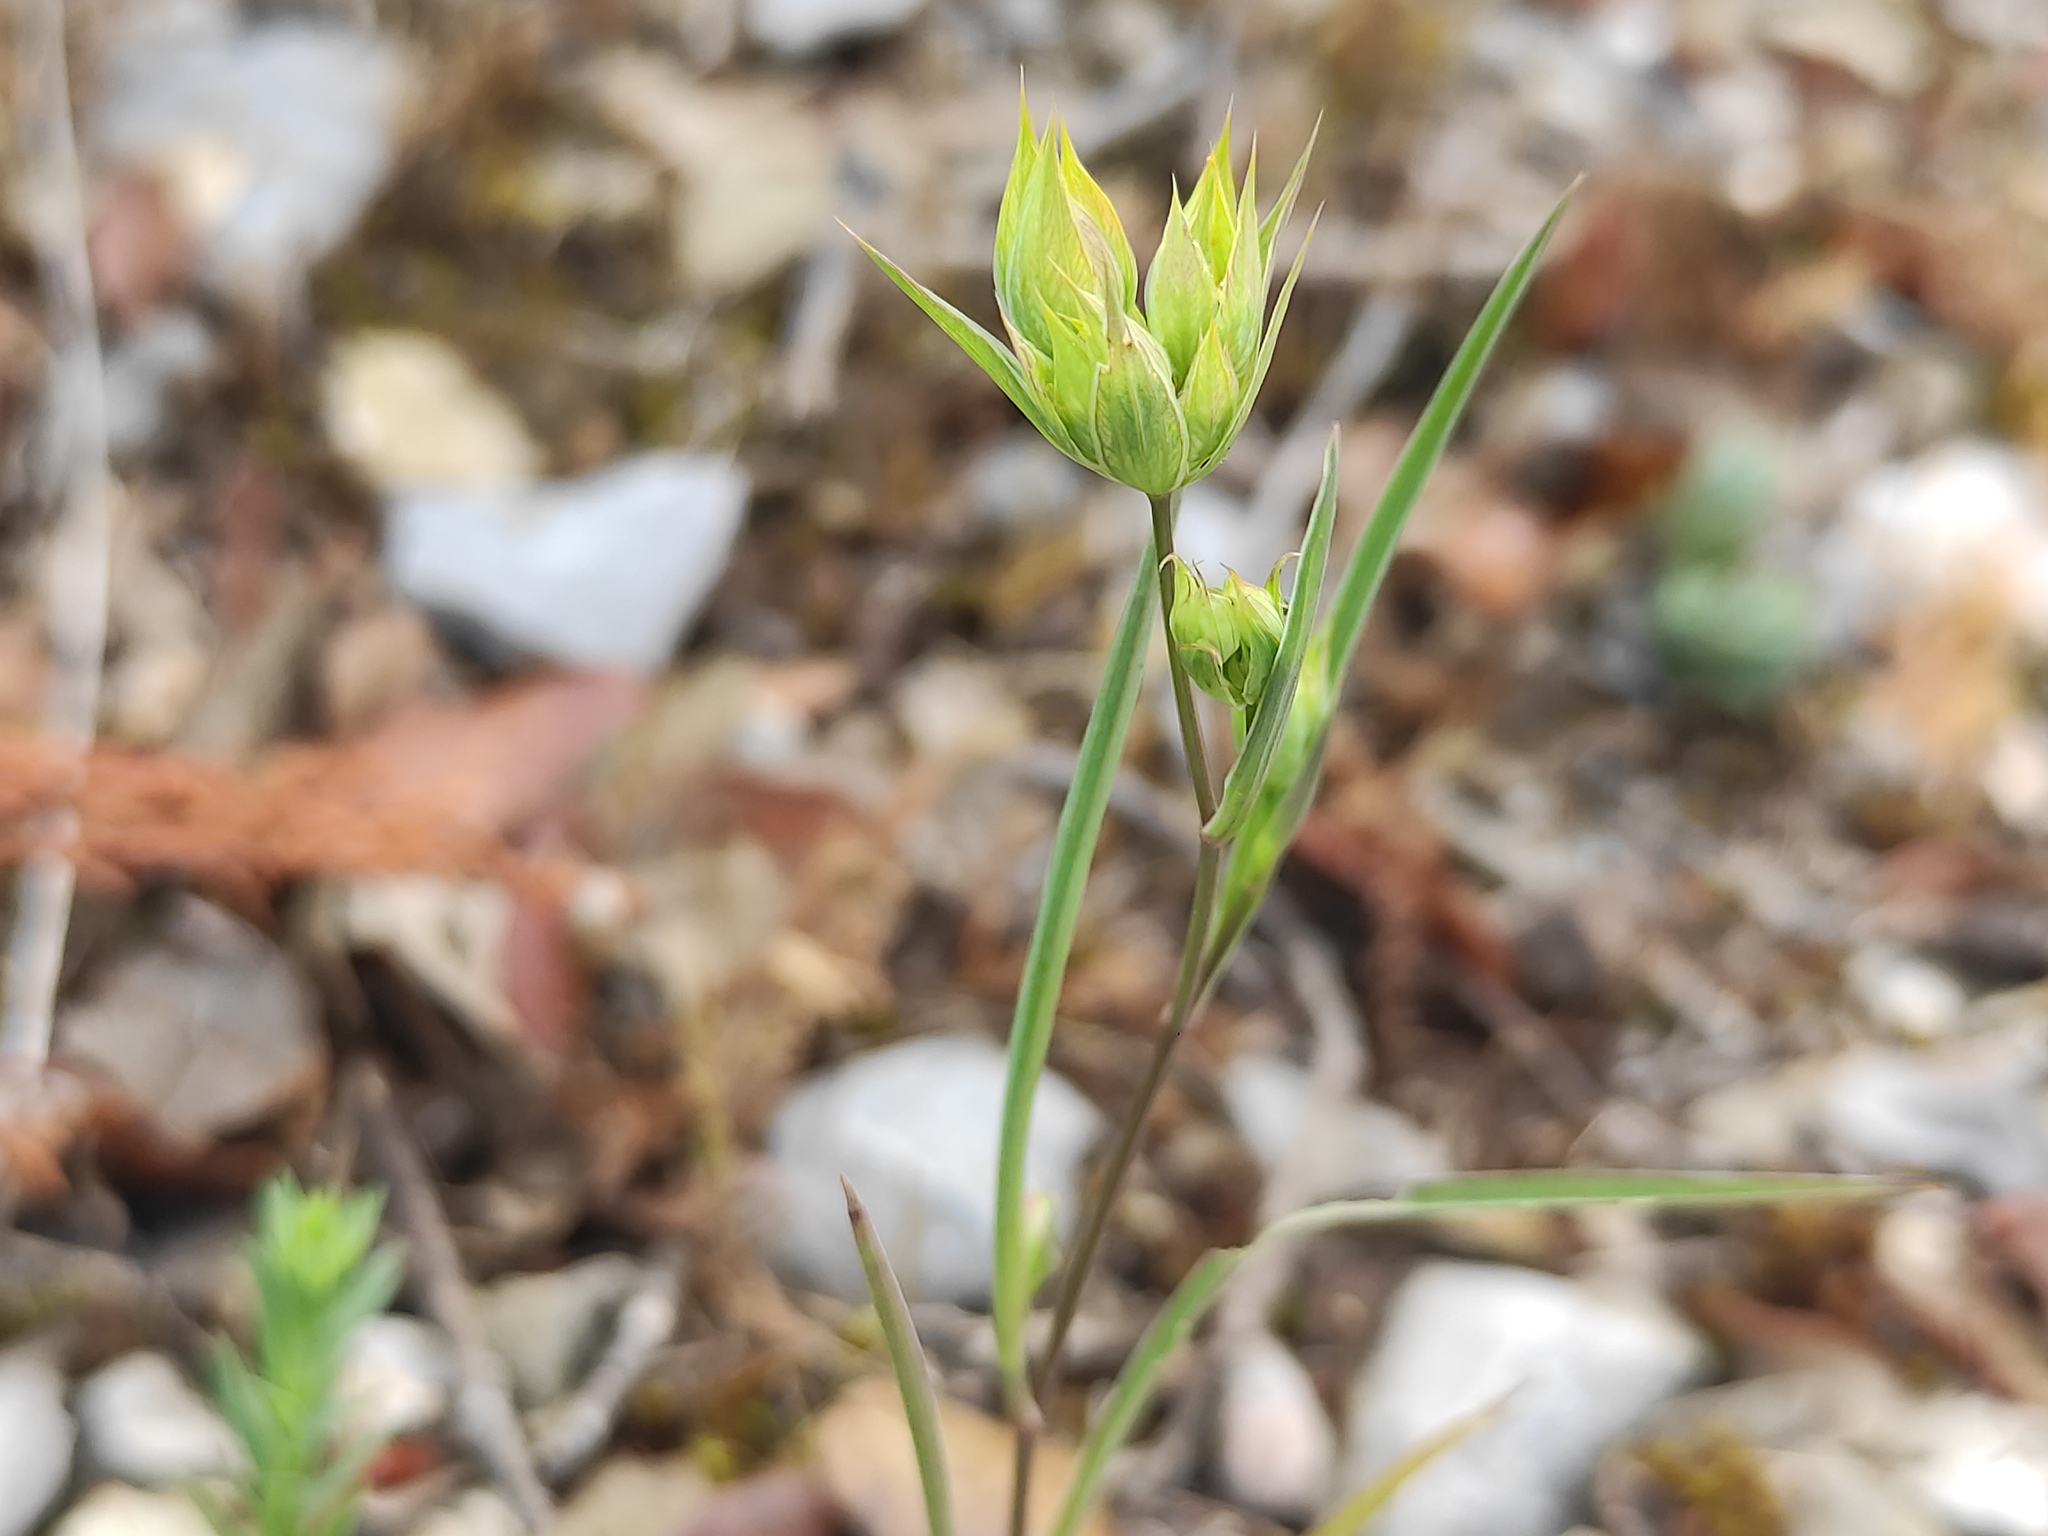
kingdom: Plantae
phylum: Tracheophyta
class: Magnoliopsida
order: Apiales
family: Apiaceae
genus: Bupleurum
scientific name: Bupleurum baldense
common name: Small hare's-ear
